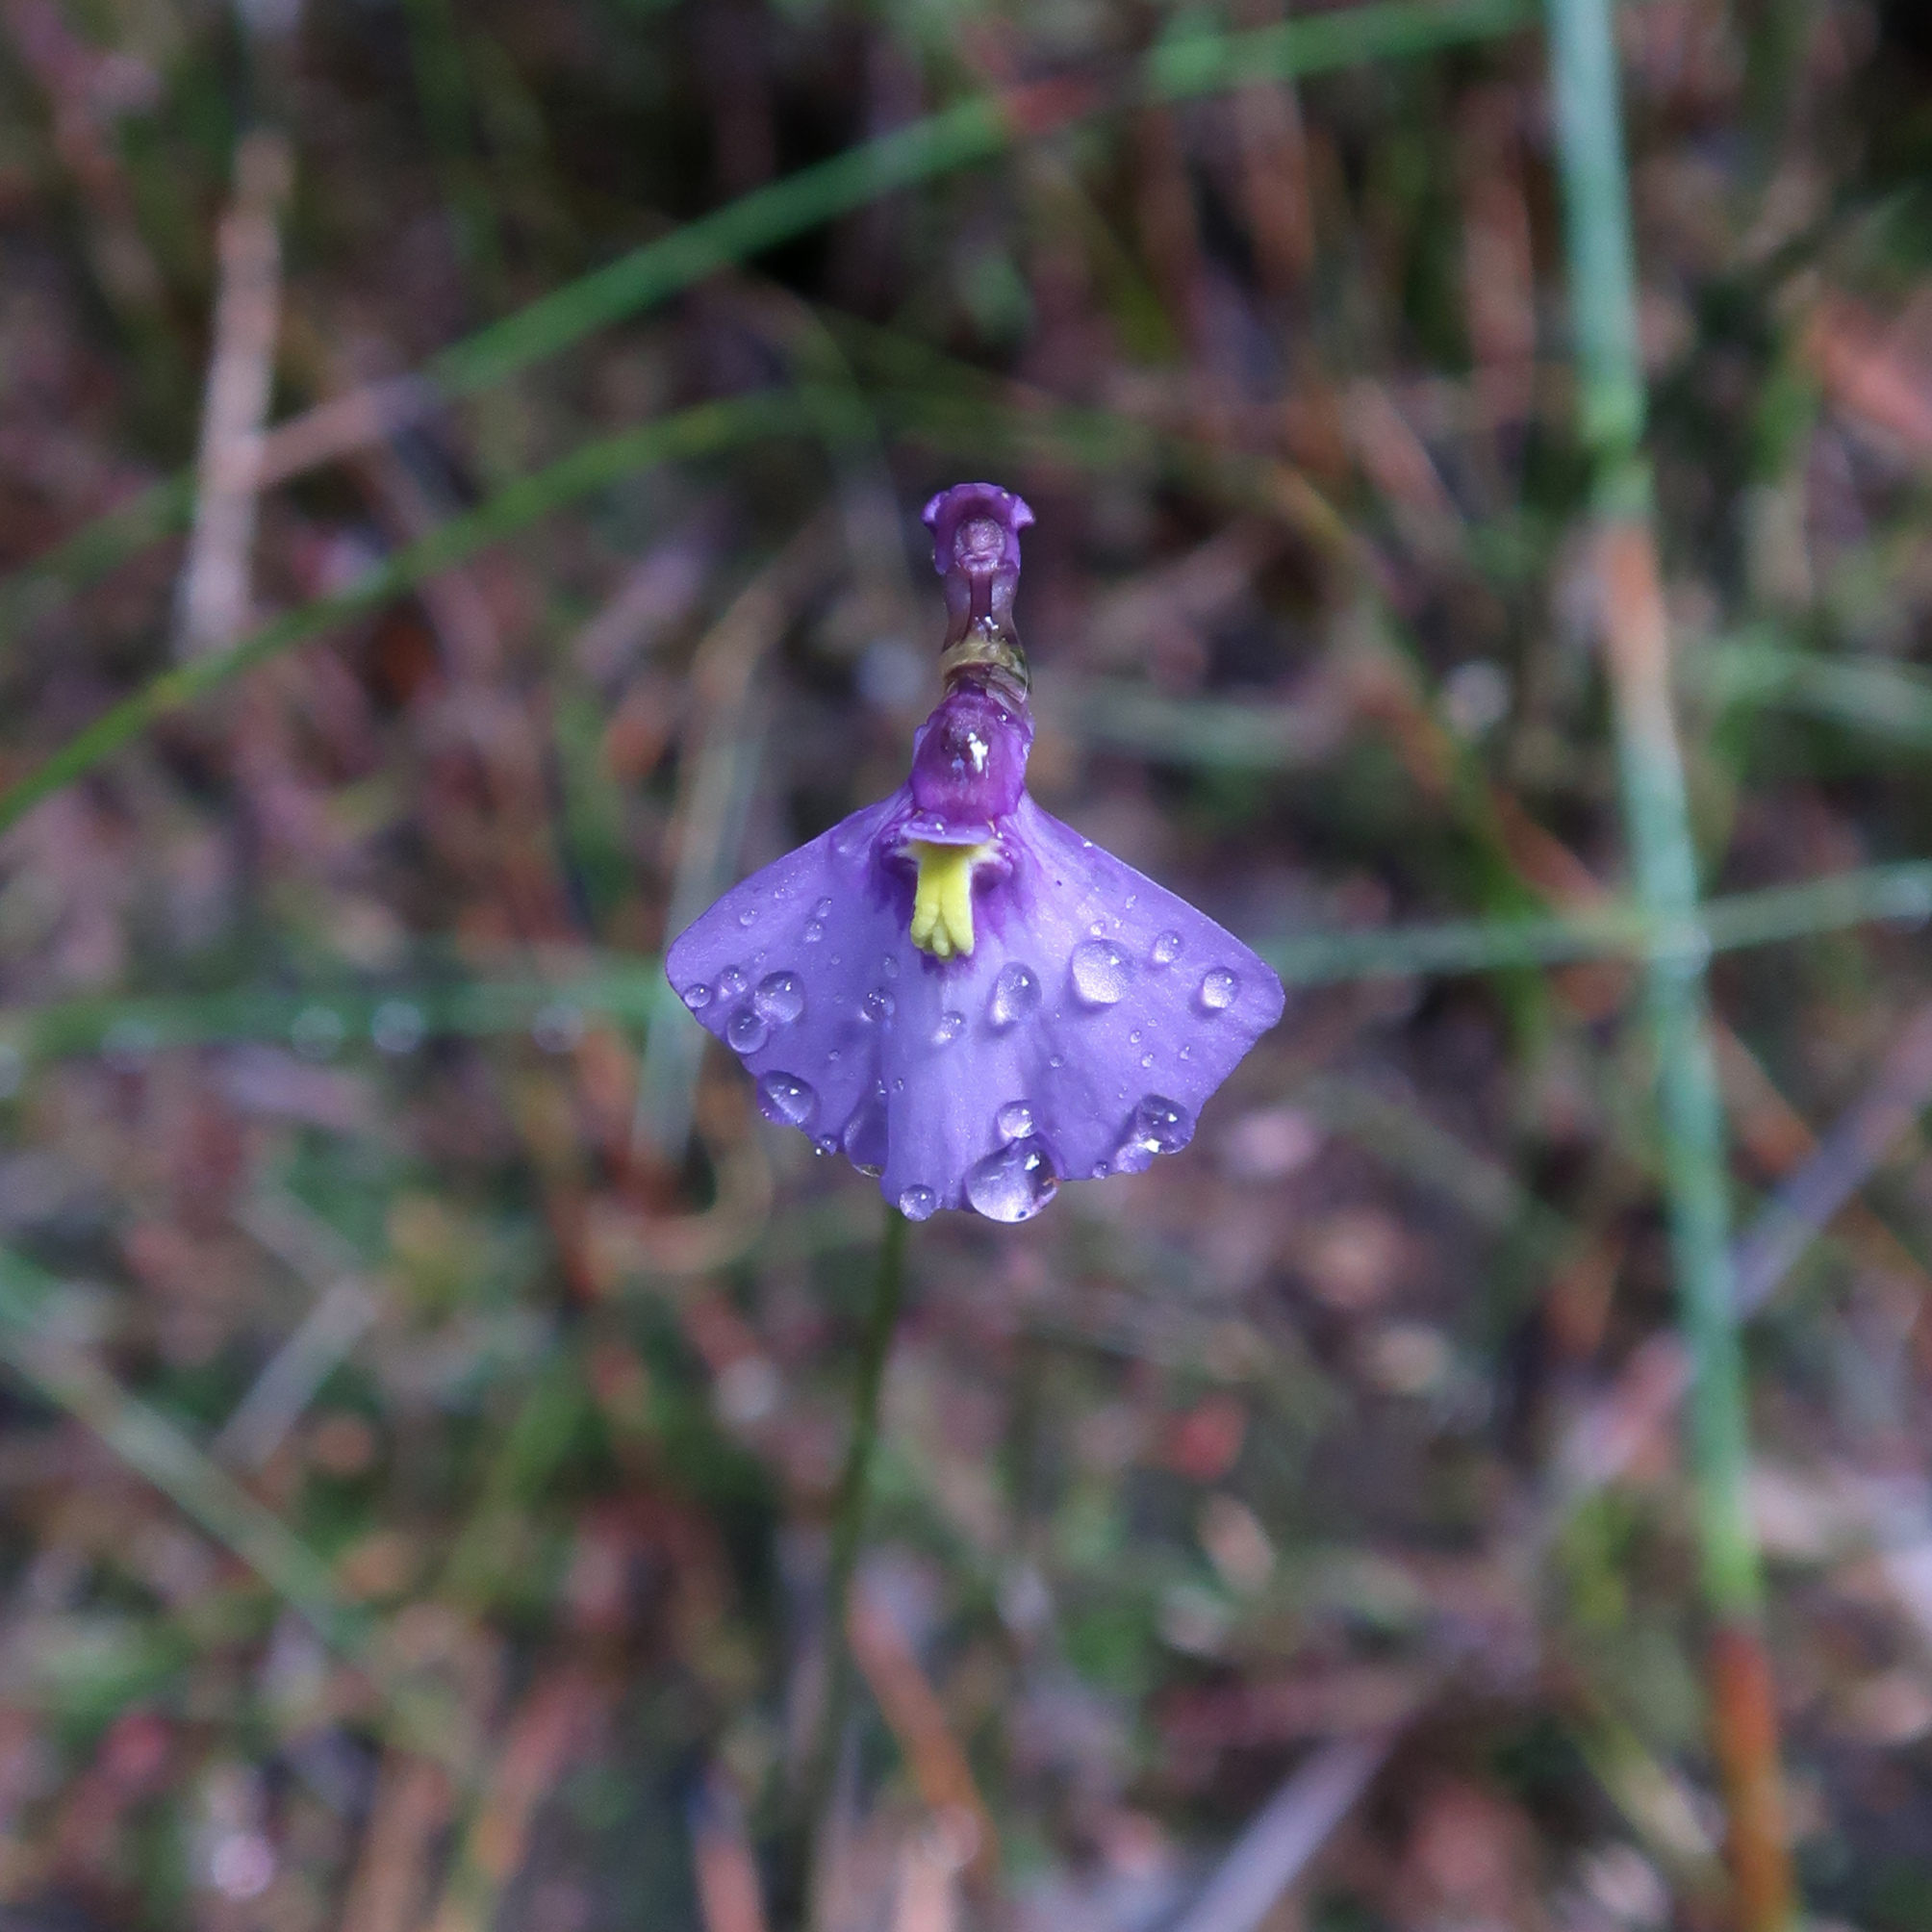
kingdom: Plantae
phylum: Tracheophyta
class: Magnoliopsida
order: Lamiales
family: Lentibulariaceae
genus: Utricularia
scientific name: Utricularia dichotoma
